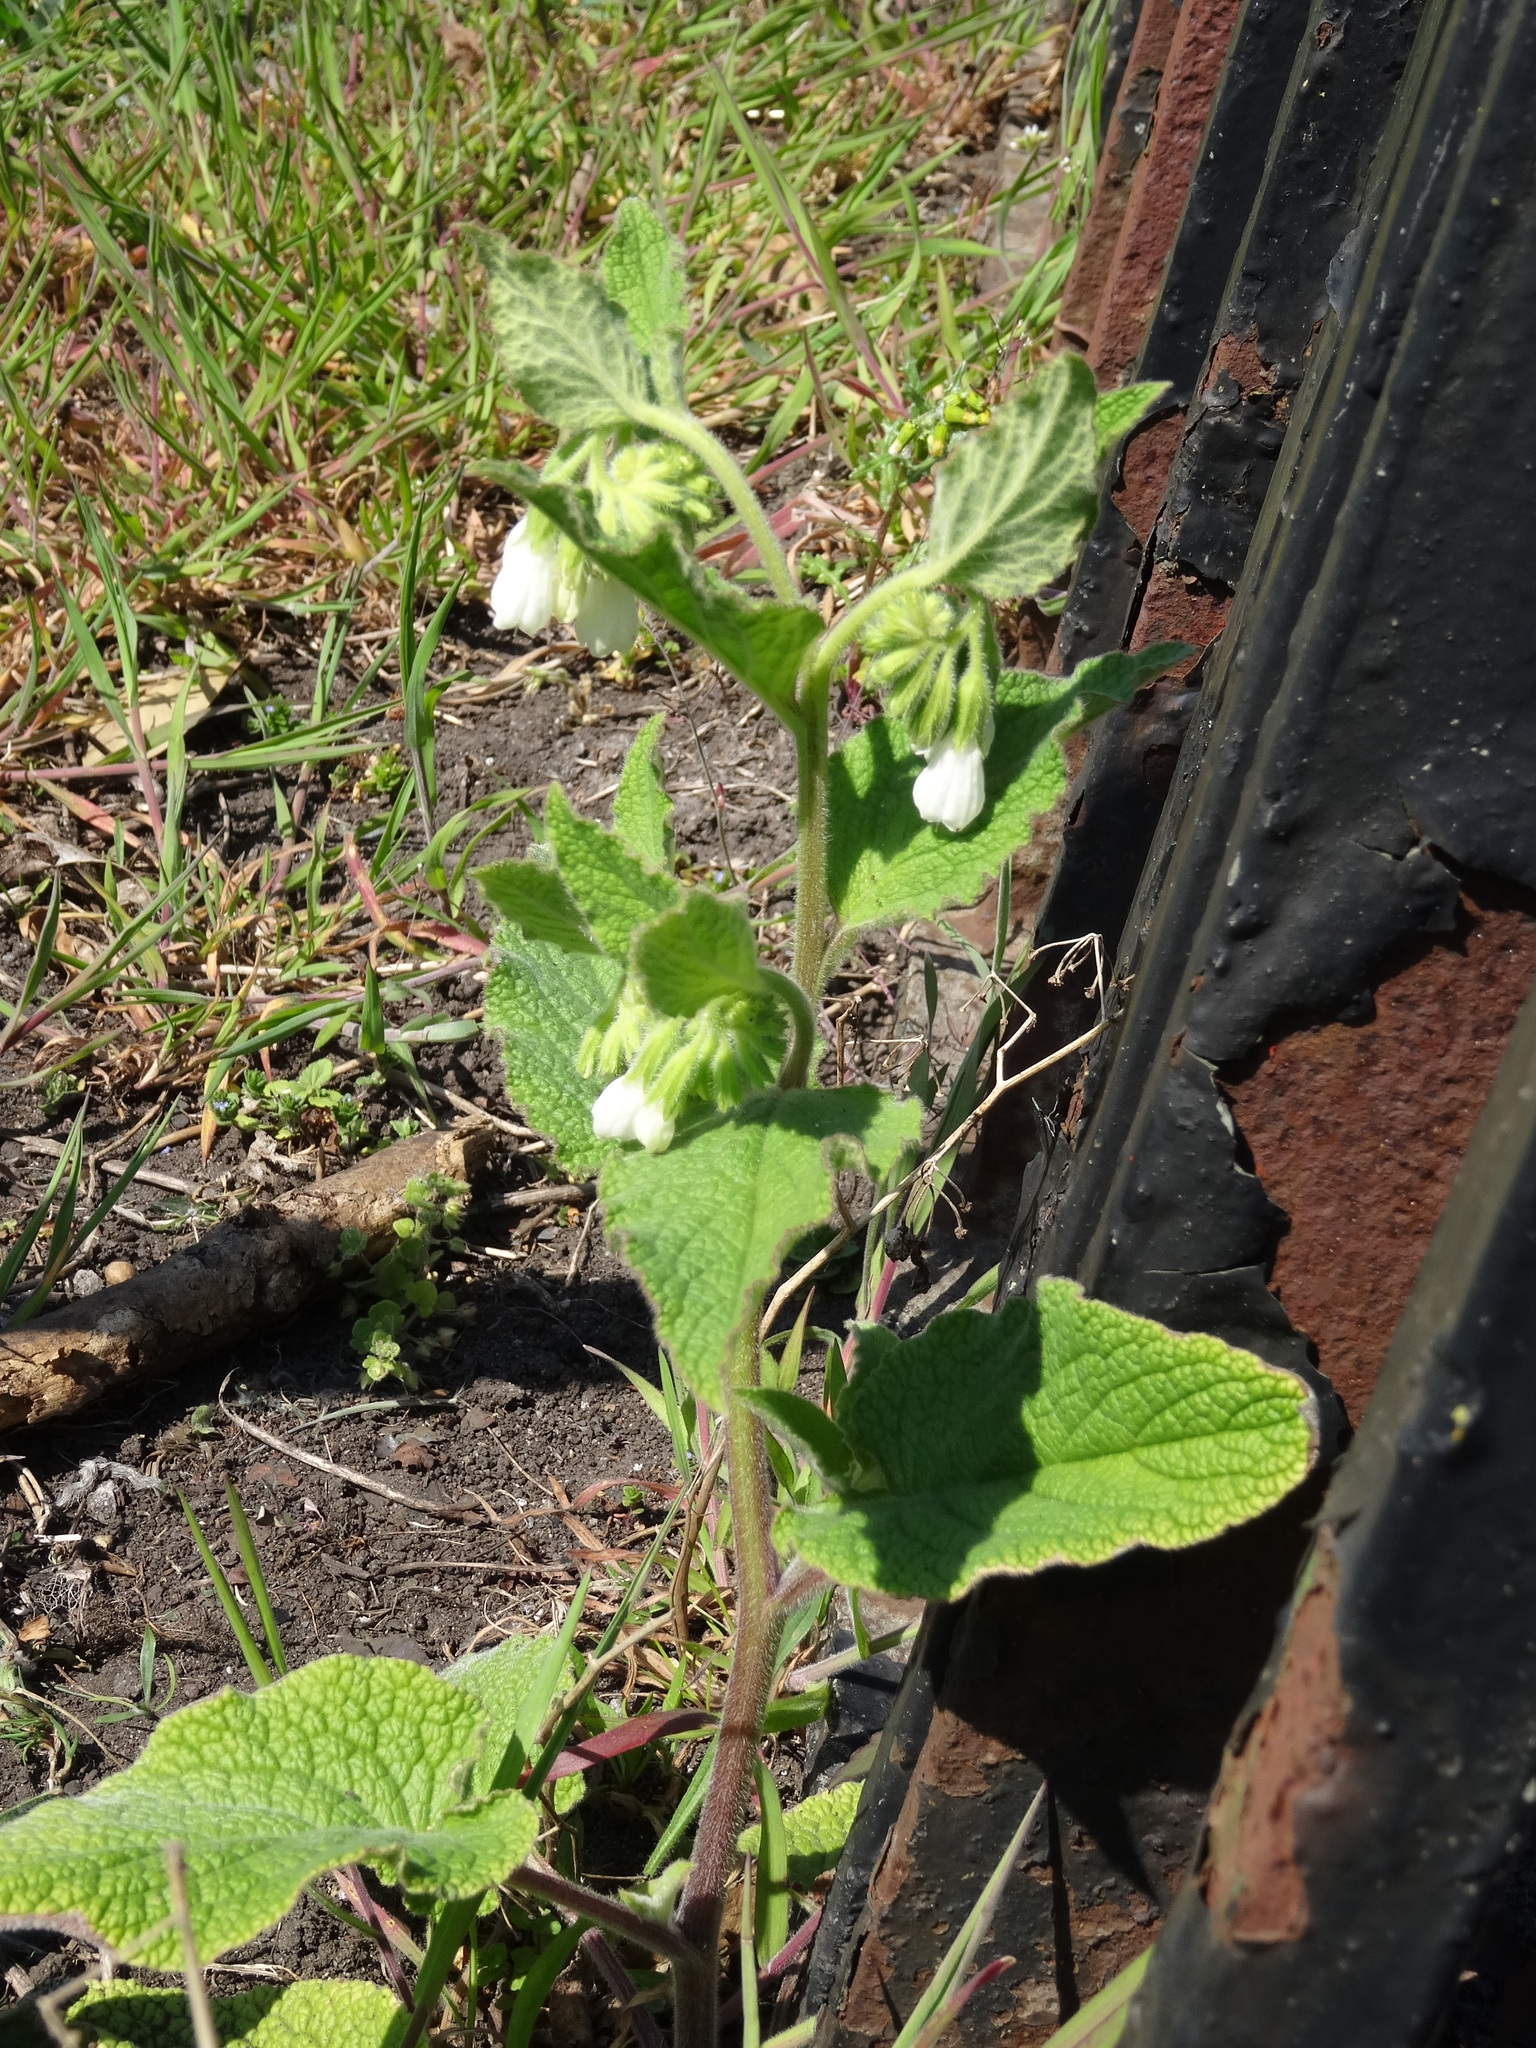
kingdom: Plantae
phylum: Tracheophyta
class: Magnoliopsida
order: Boraginales
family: Boraginaceae
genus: Symphytum
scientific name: Symphytum officinale
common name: Common comfrey
